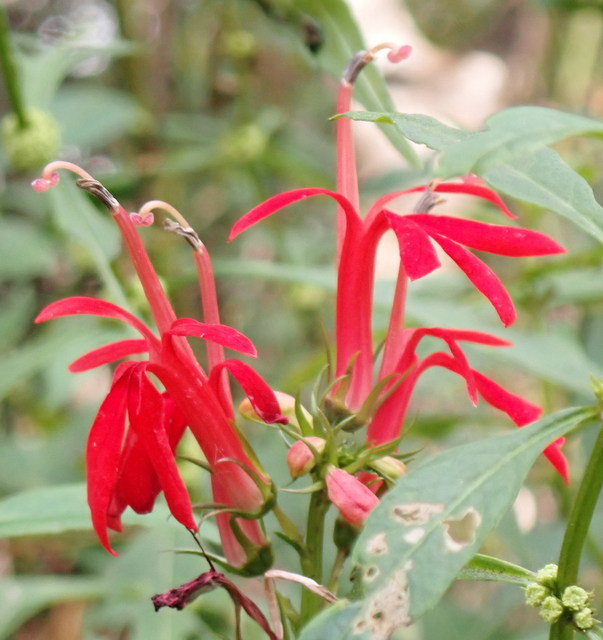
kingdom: Plantae
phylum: Tracheophyta
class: Magnoliopsida
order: Asterales
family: Campanulaceae
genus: Lobelia
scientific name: Lobelia cardinalis
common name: Cardinal flower
